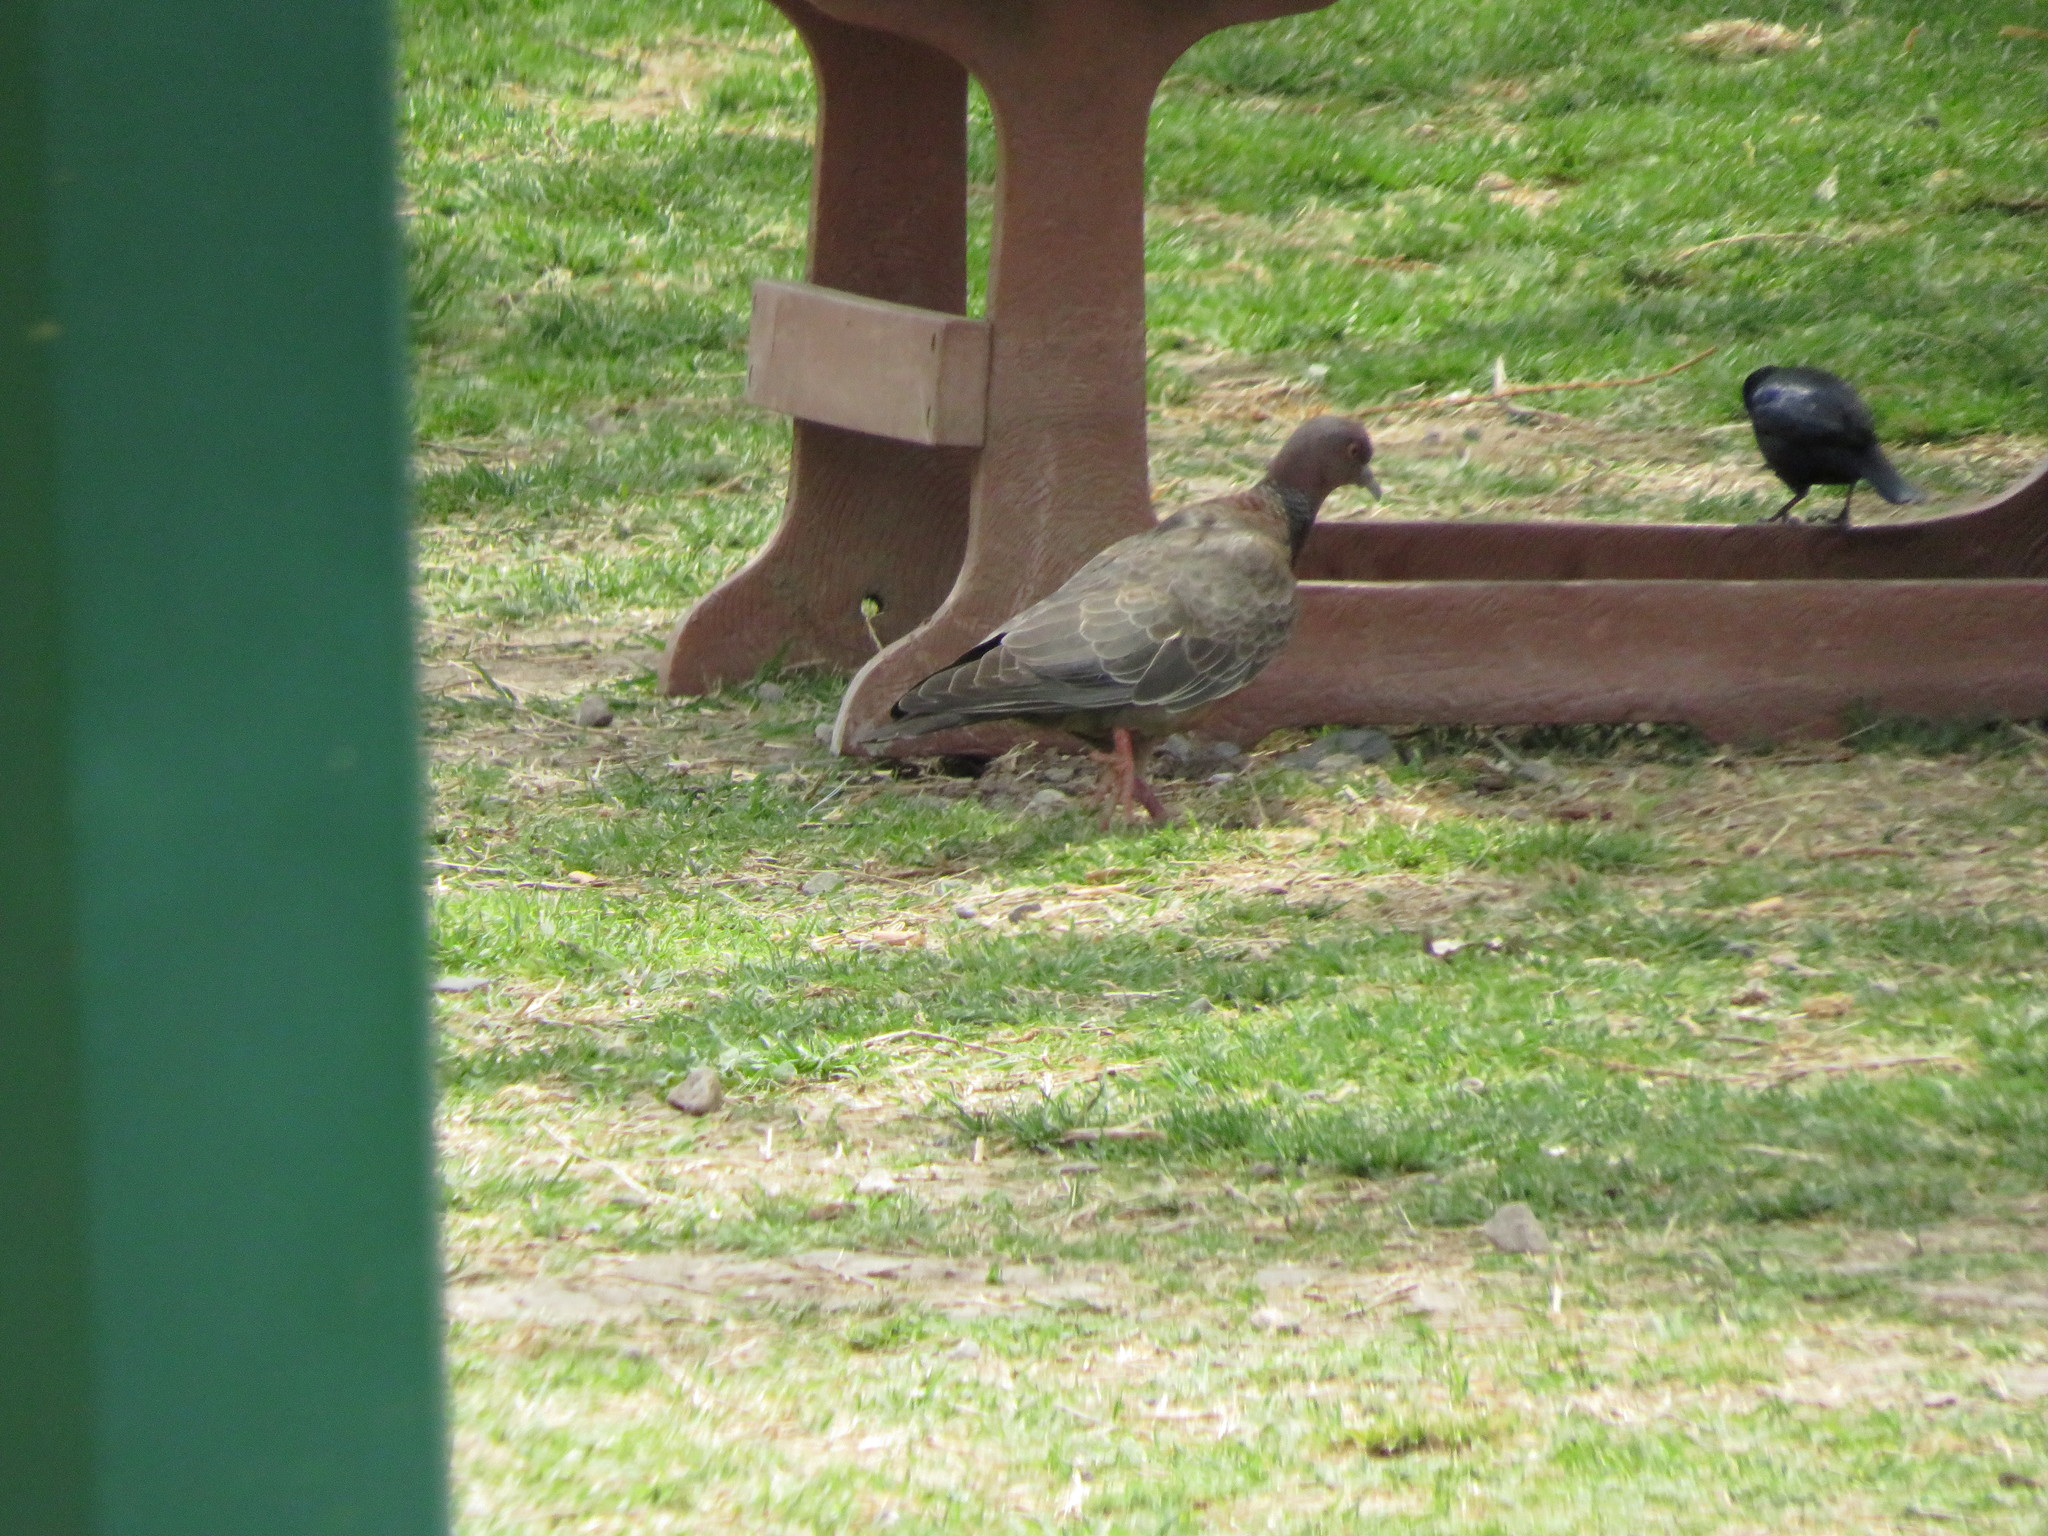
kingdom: Animalia
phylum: Chordata
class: Aves
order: Columbiformes
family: Columbidae
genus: Patagioenas
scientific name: Patagioenas picazuro
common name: Picazuro pigeon
